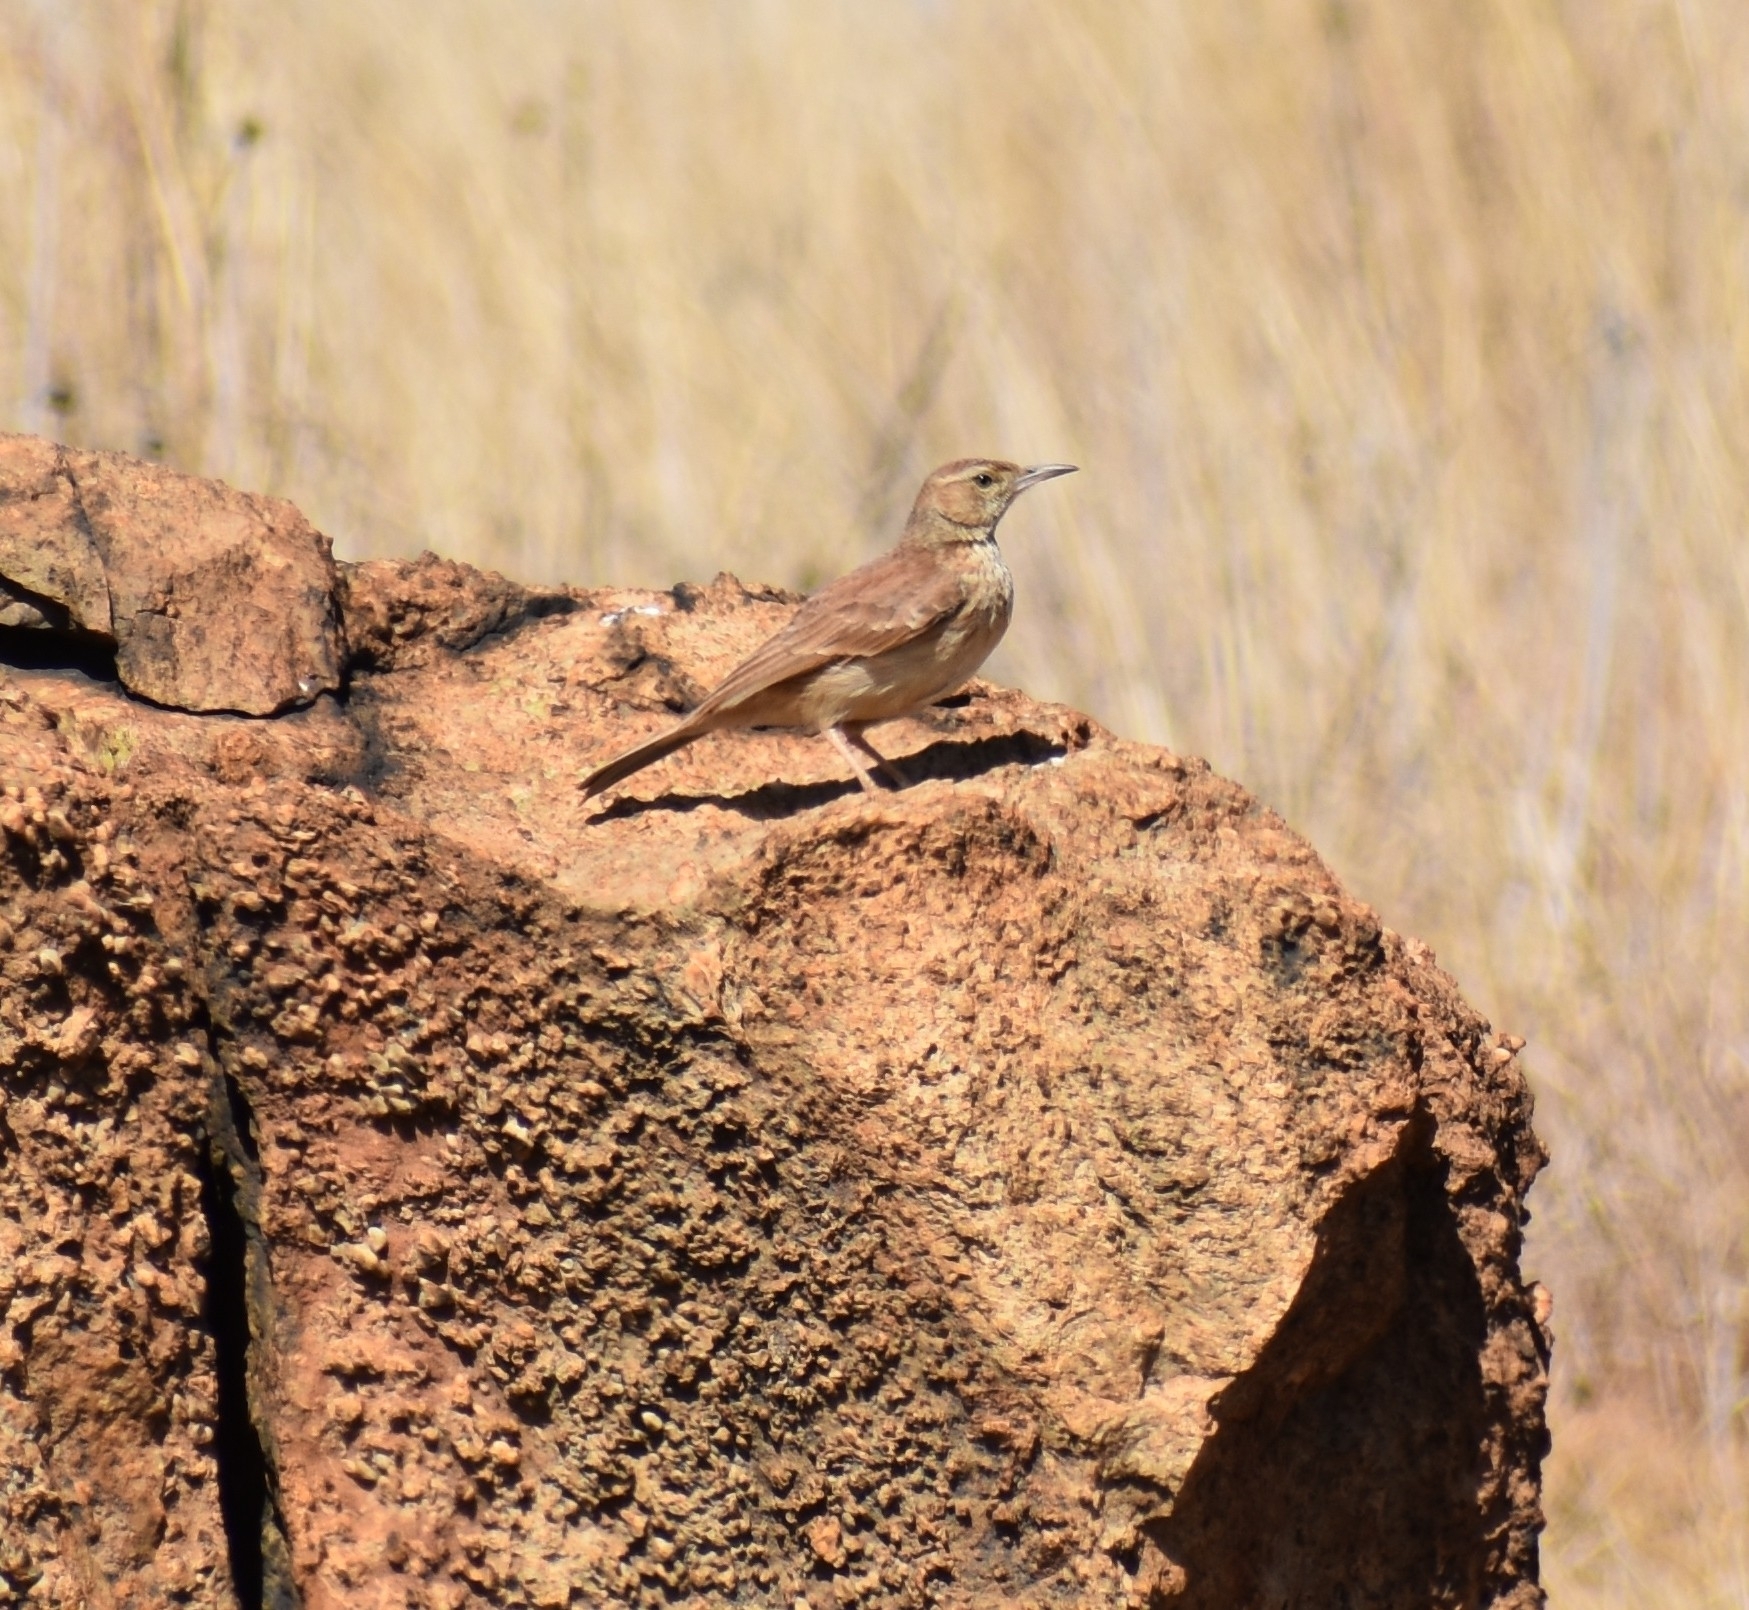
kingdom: Animalia
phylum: Chordata
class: Aves
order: Passeriformes
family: Alaudidae
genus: Certhilauda
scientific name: Certhilauda semitorquata
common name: Eastern long-billed lark
